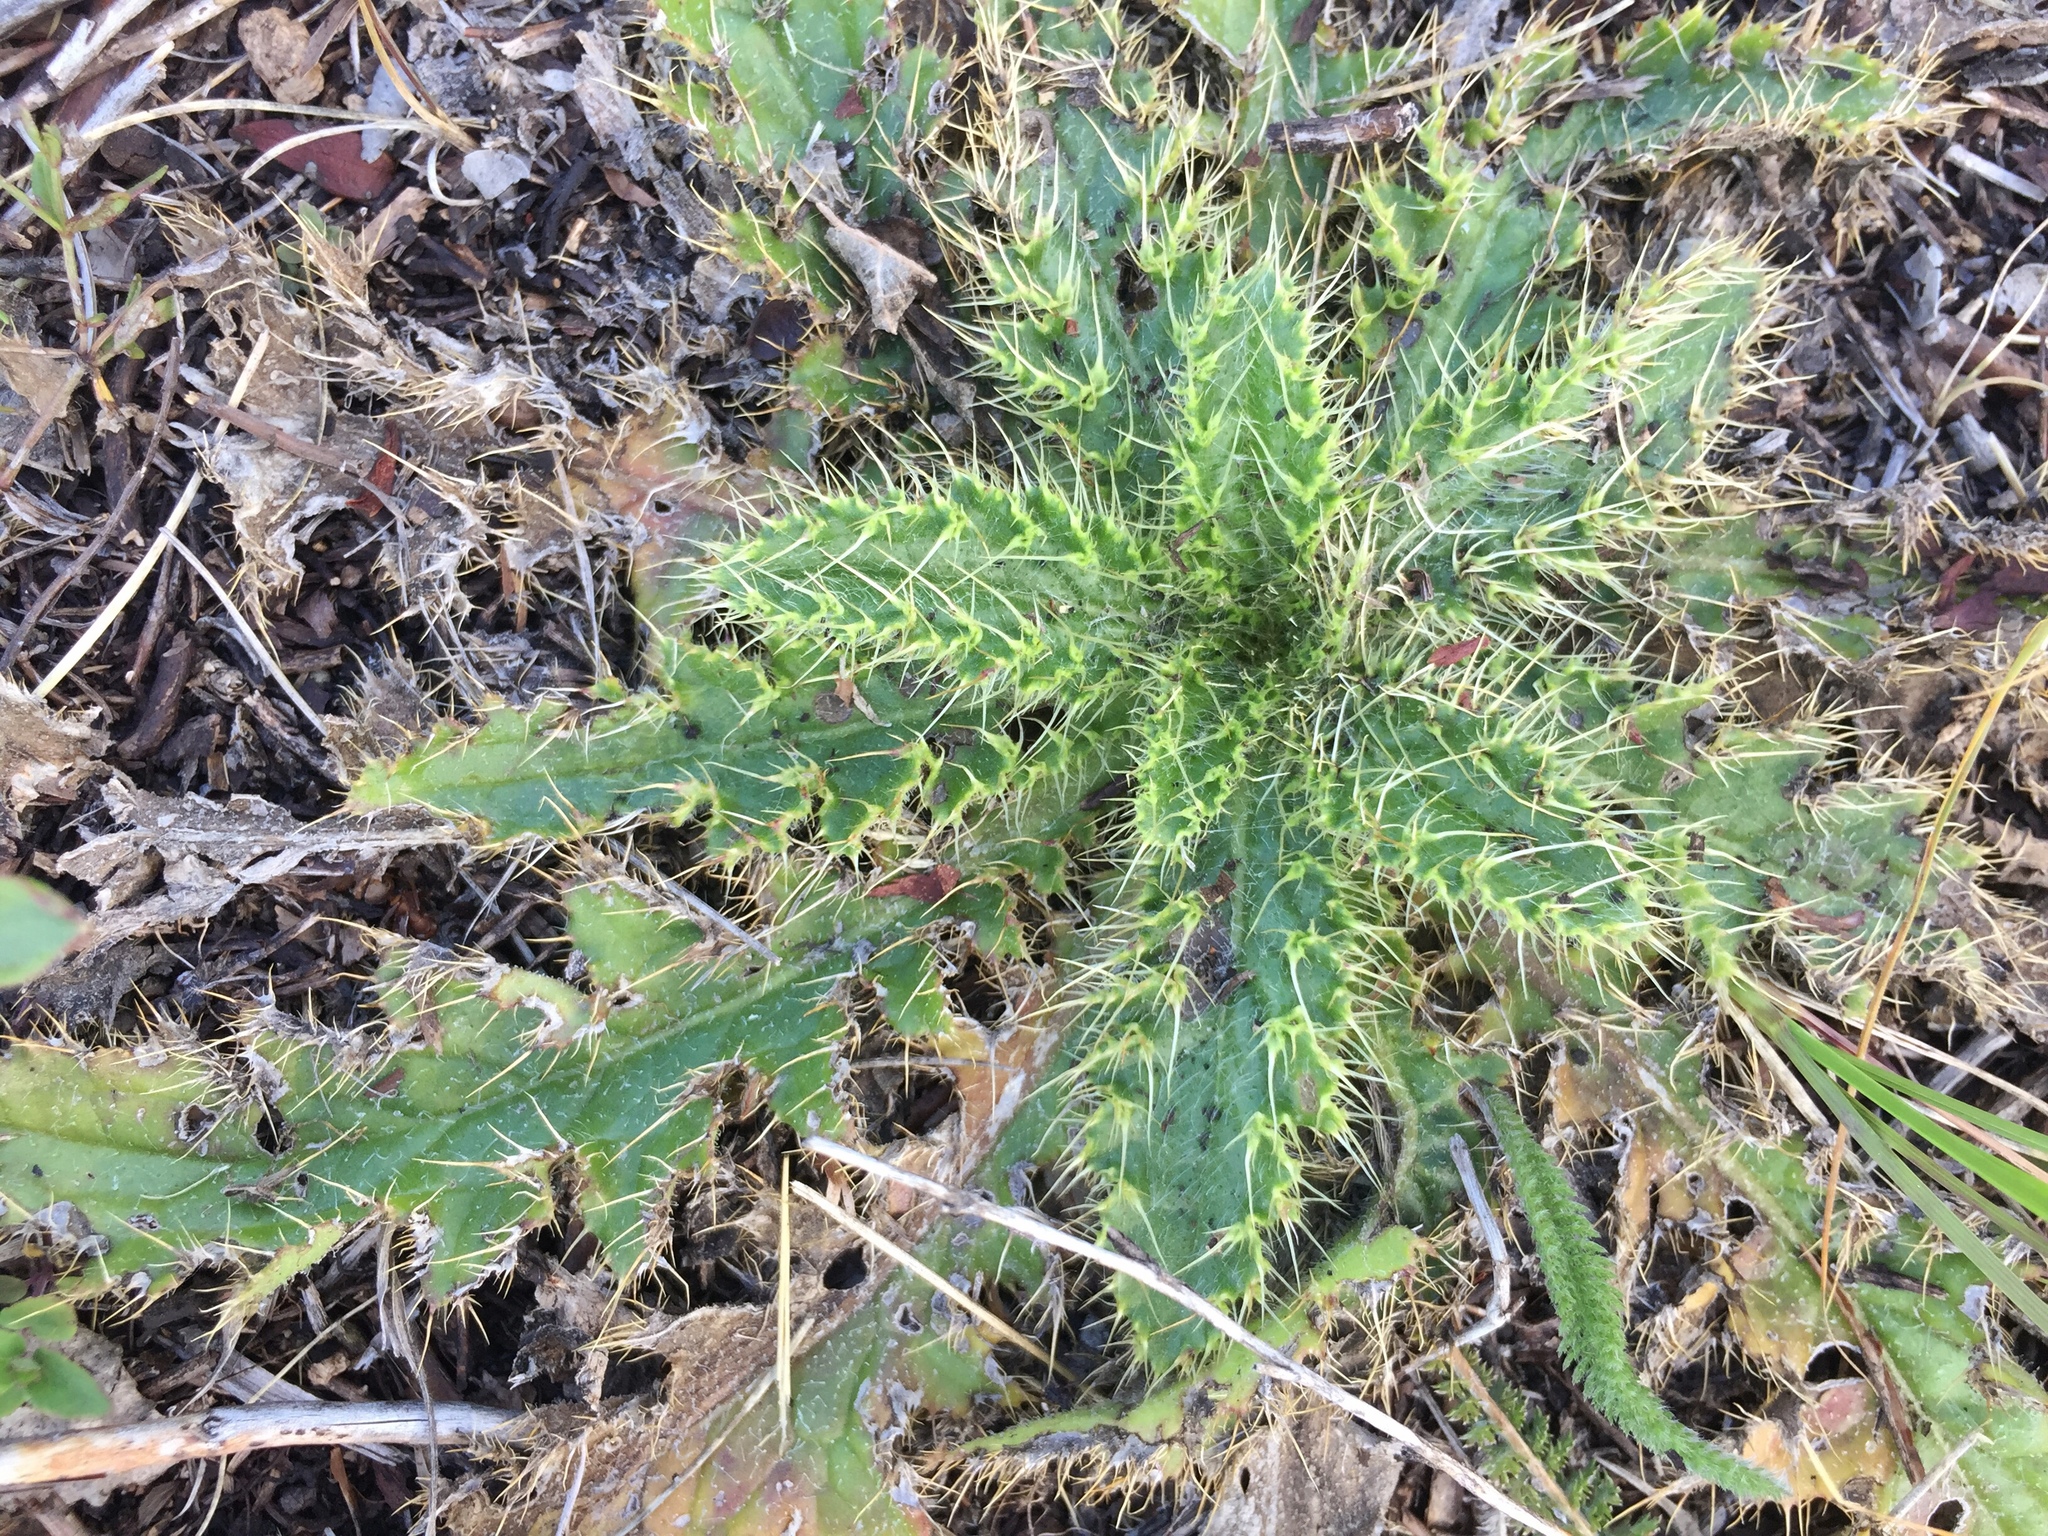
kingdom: Plantae
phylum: Tracheophyta
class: Magnoliopsida
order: Asterales
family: Asteraceae
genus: Cirsium
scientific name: Cirsium drummondii
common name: Drummond's thistle
